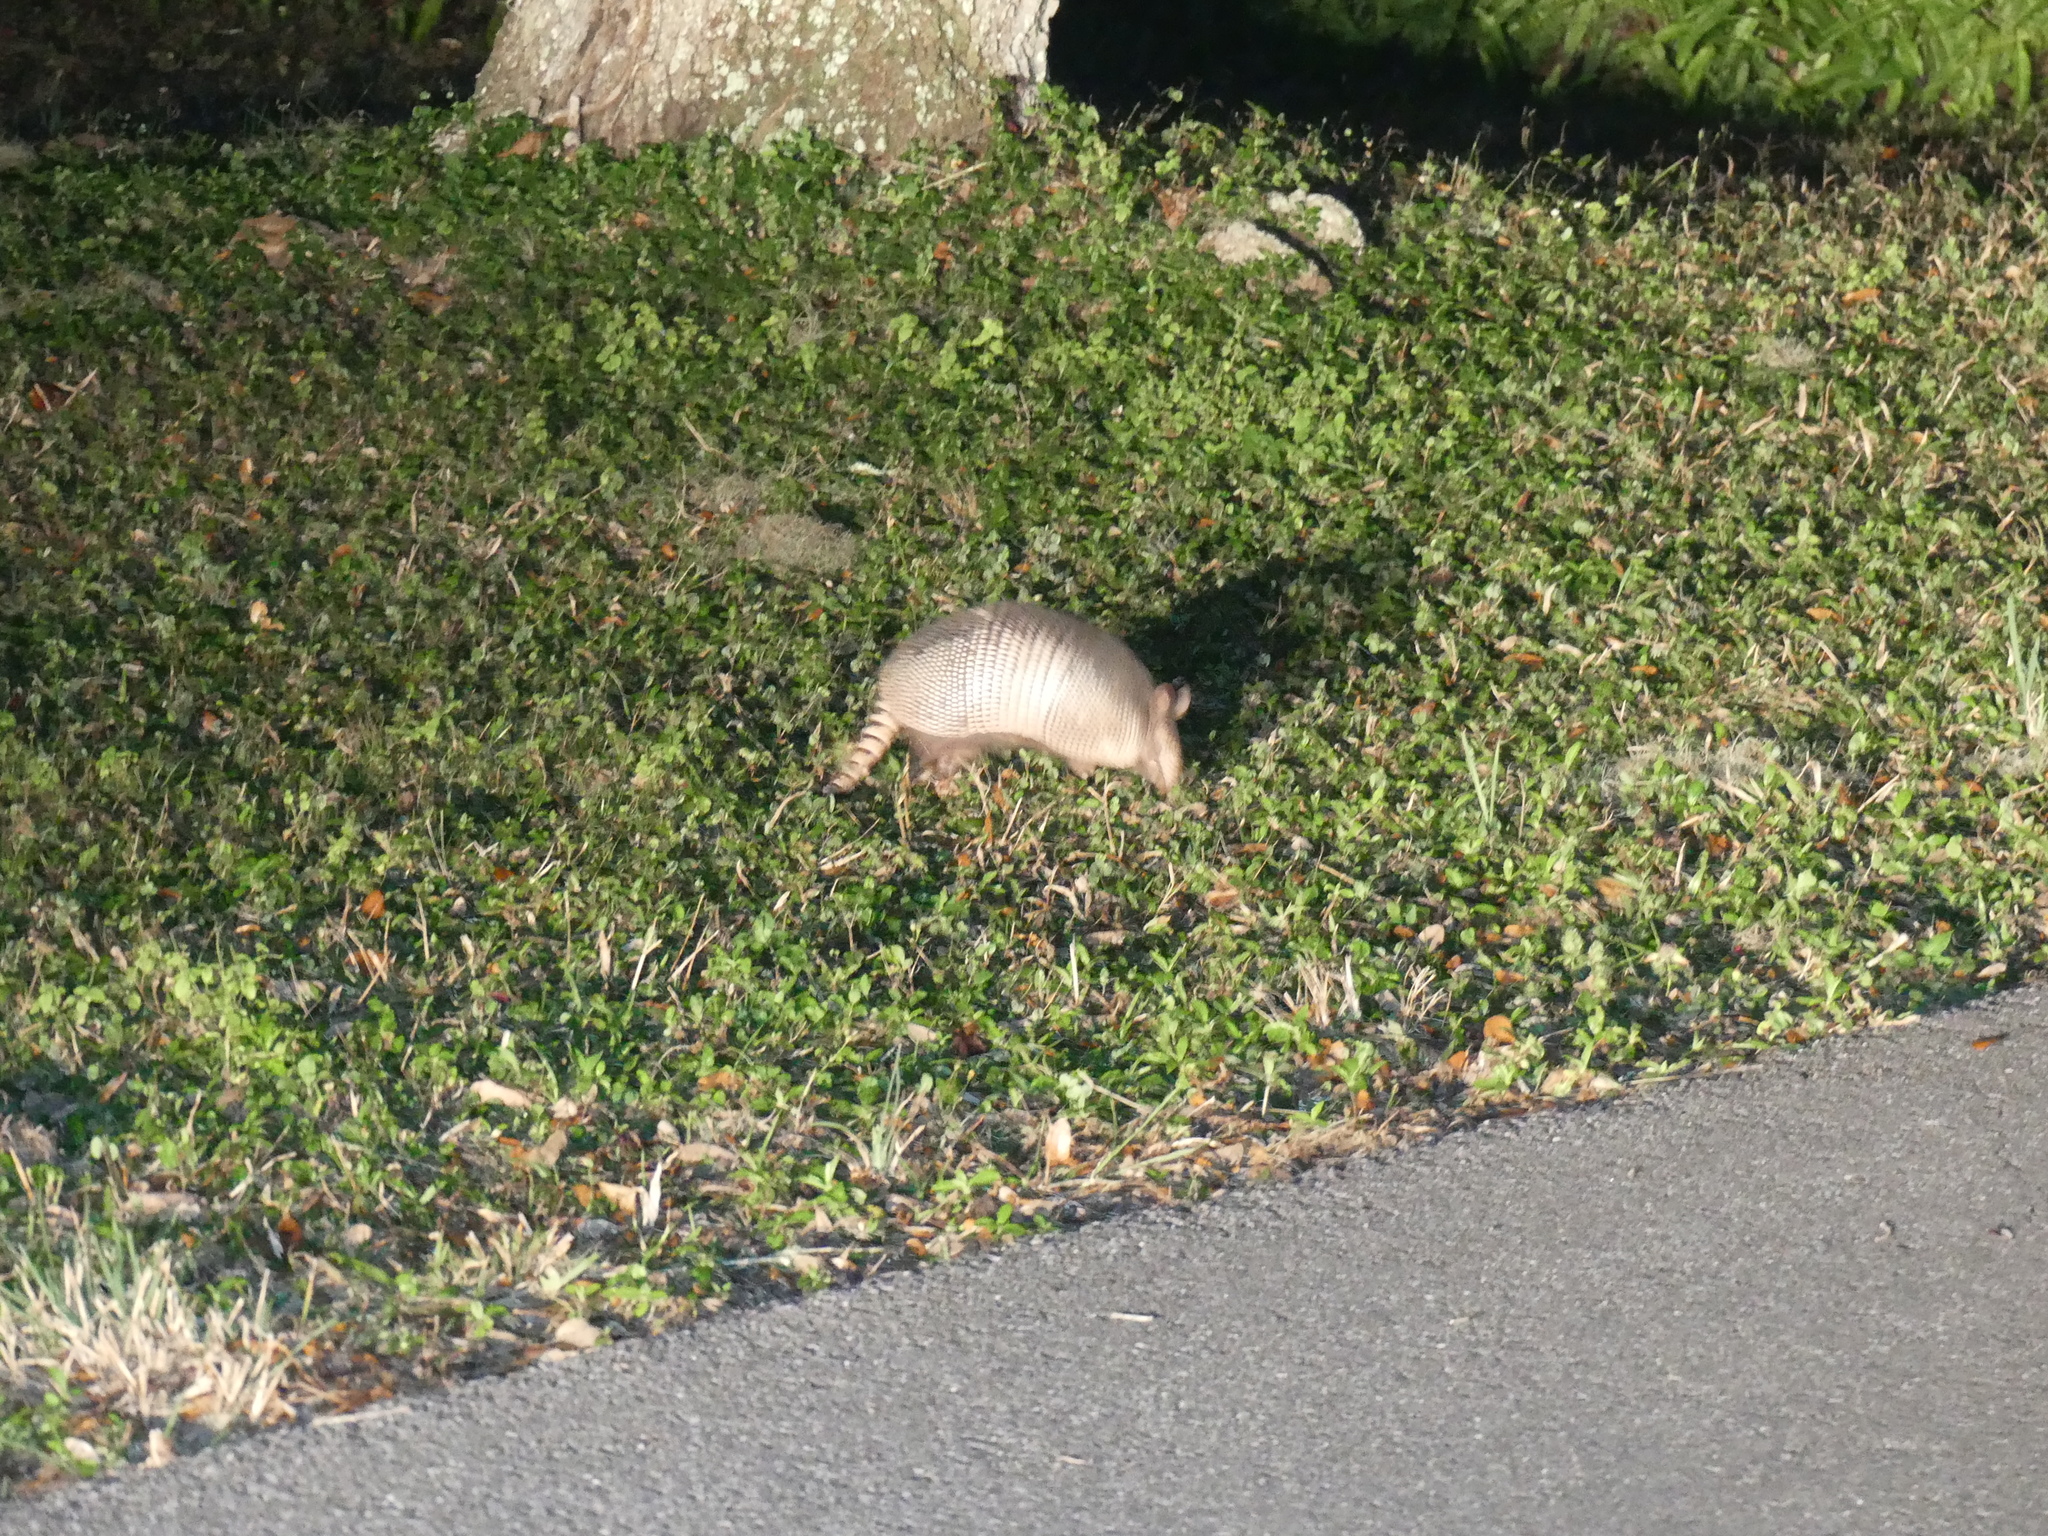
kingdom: Animalia
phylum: Chordata
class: Mammalia
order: Cingulata
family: Dasypodidae
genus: Dasypus
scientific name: Dasypus novemcinctus
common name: Nine-banded armadillo
